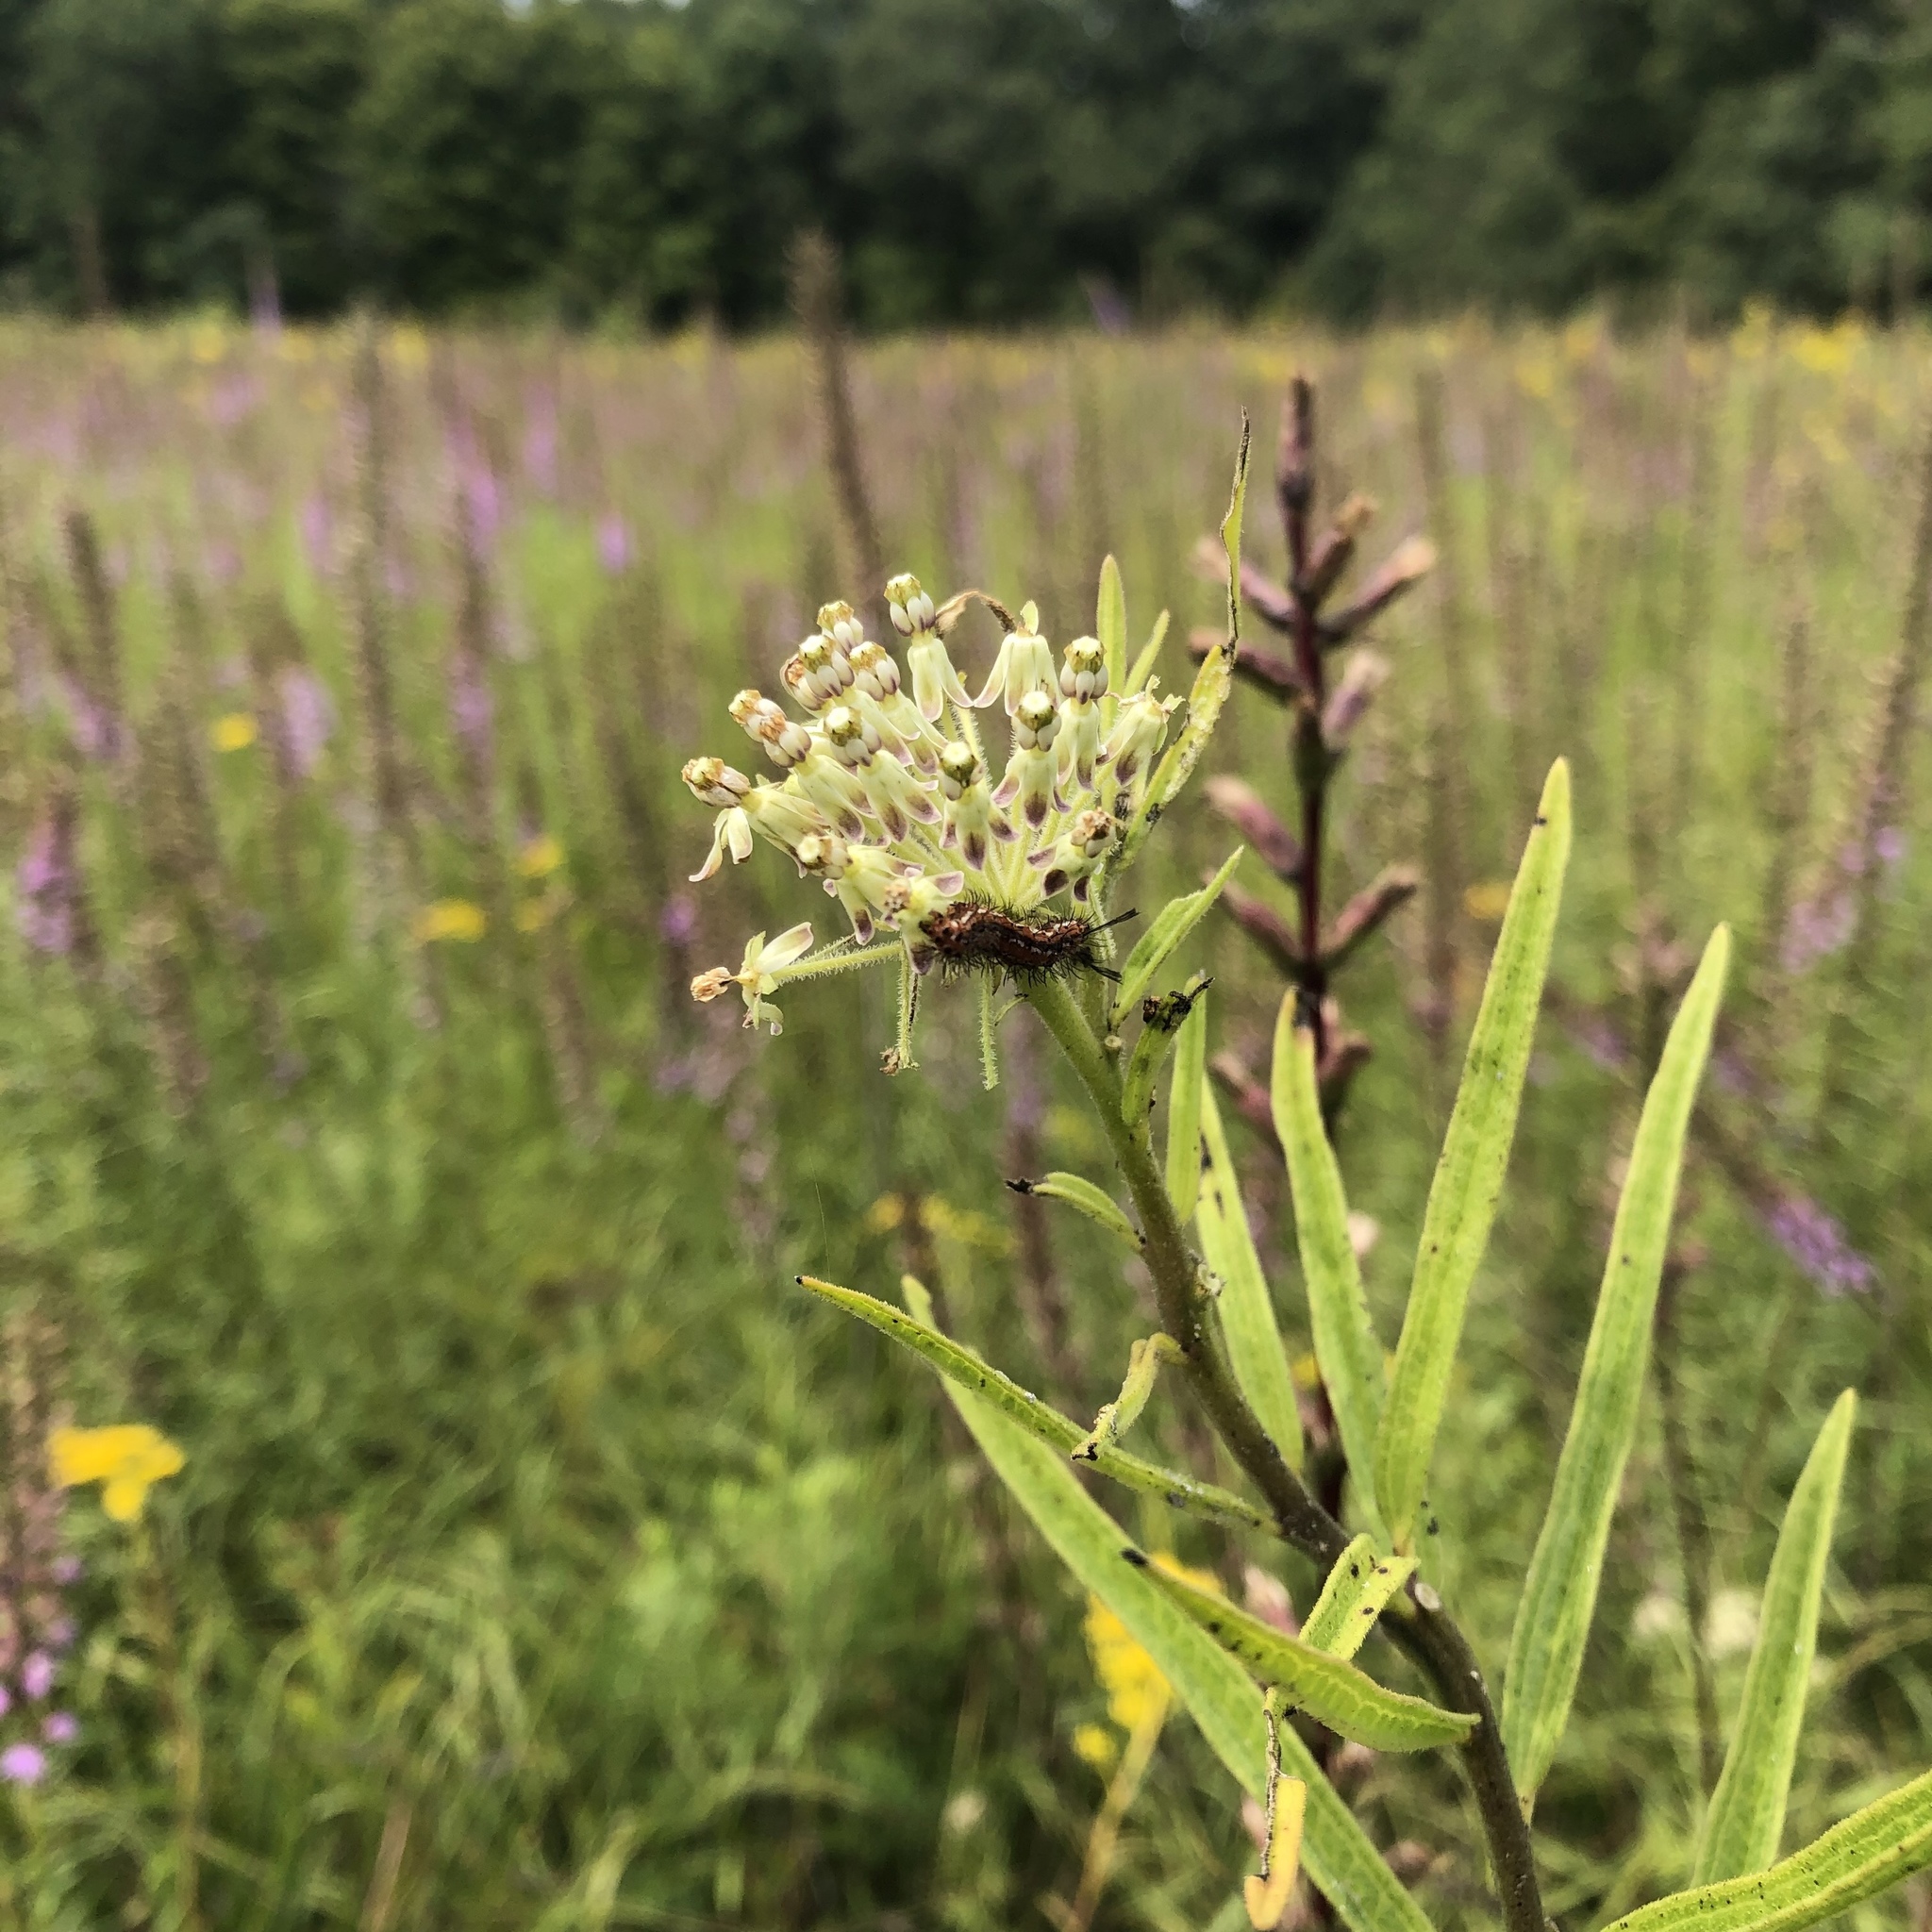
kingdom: Plantae
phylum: Tracheophyta
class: Magnoliopsida
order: Gentianales
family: Apocynaceae
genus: Asclepias
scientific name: Asclepias hirtella
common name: Prairie milkweed
